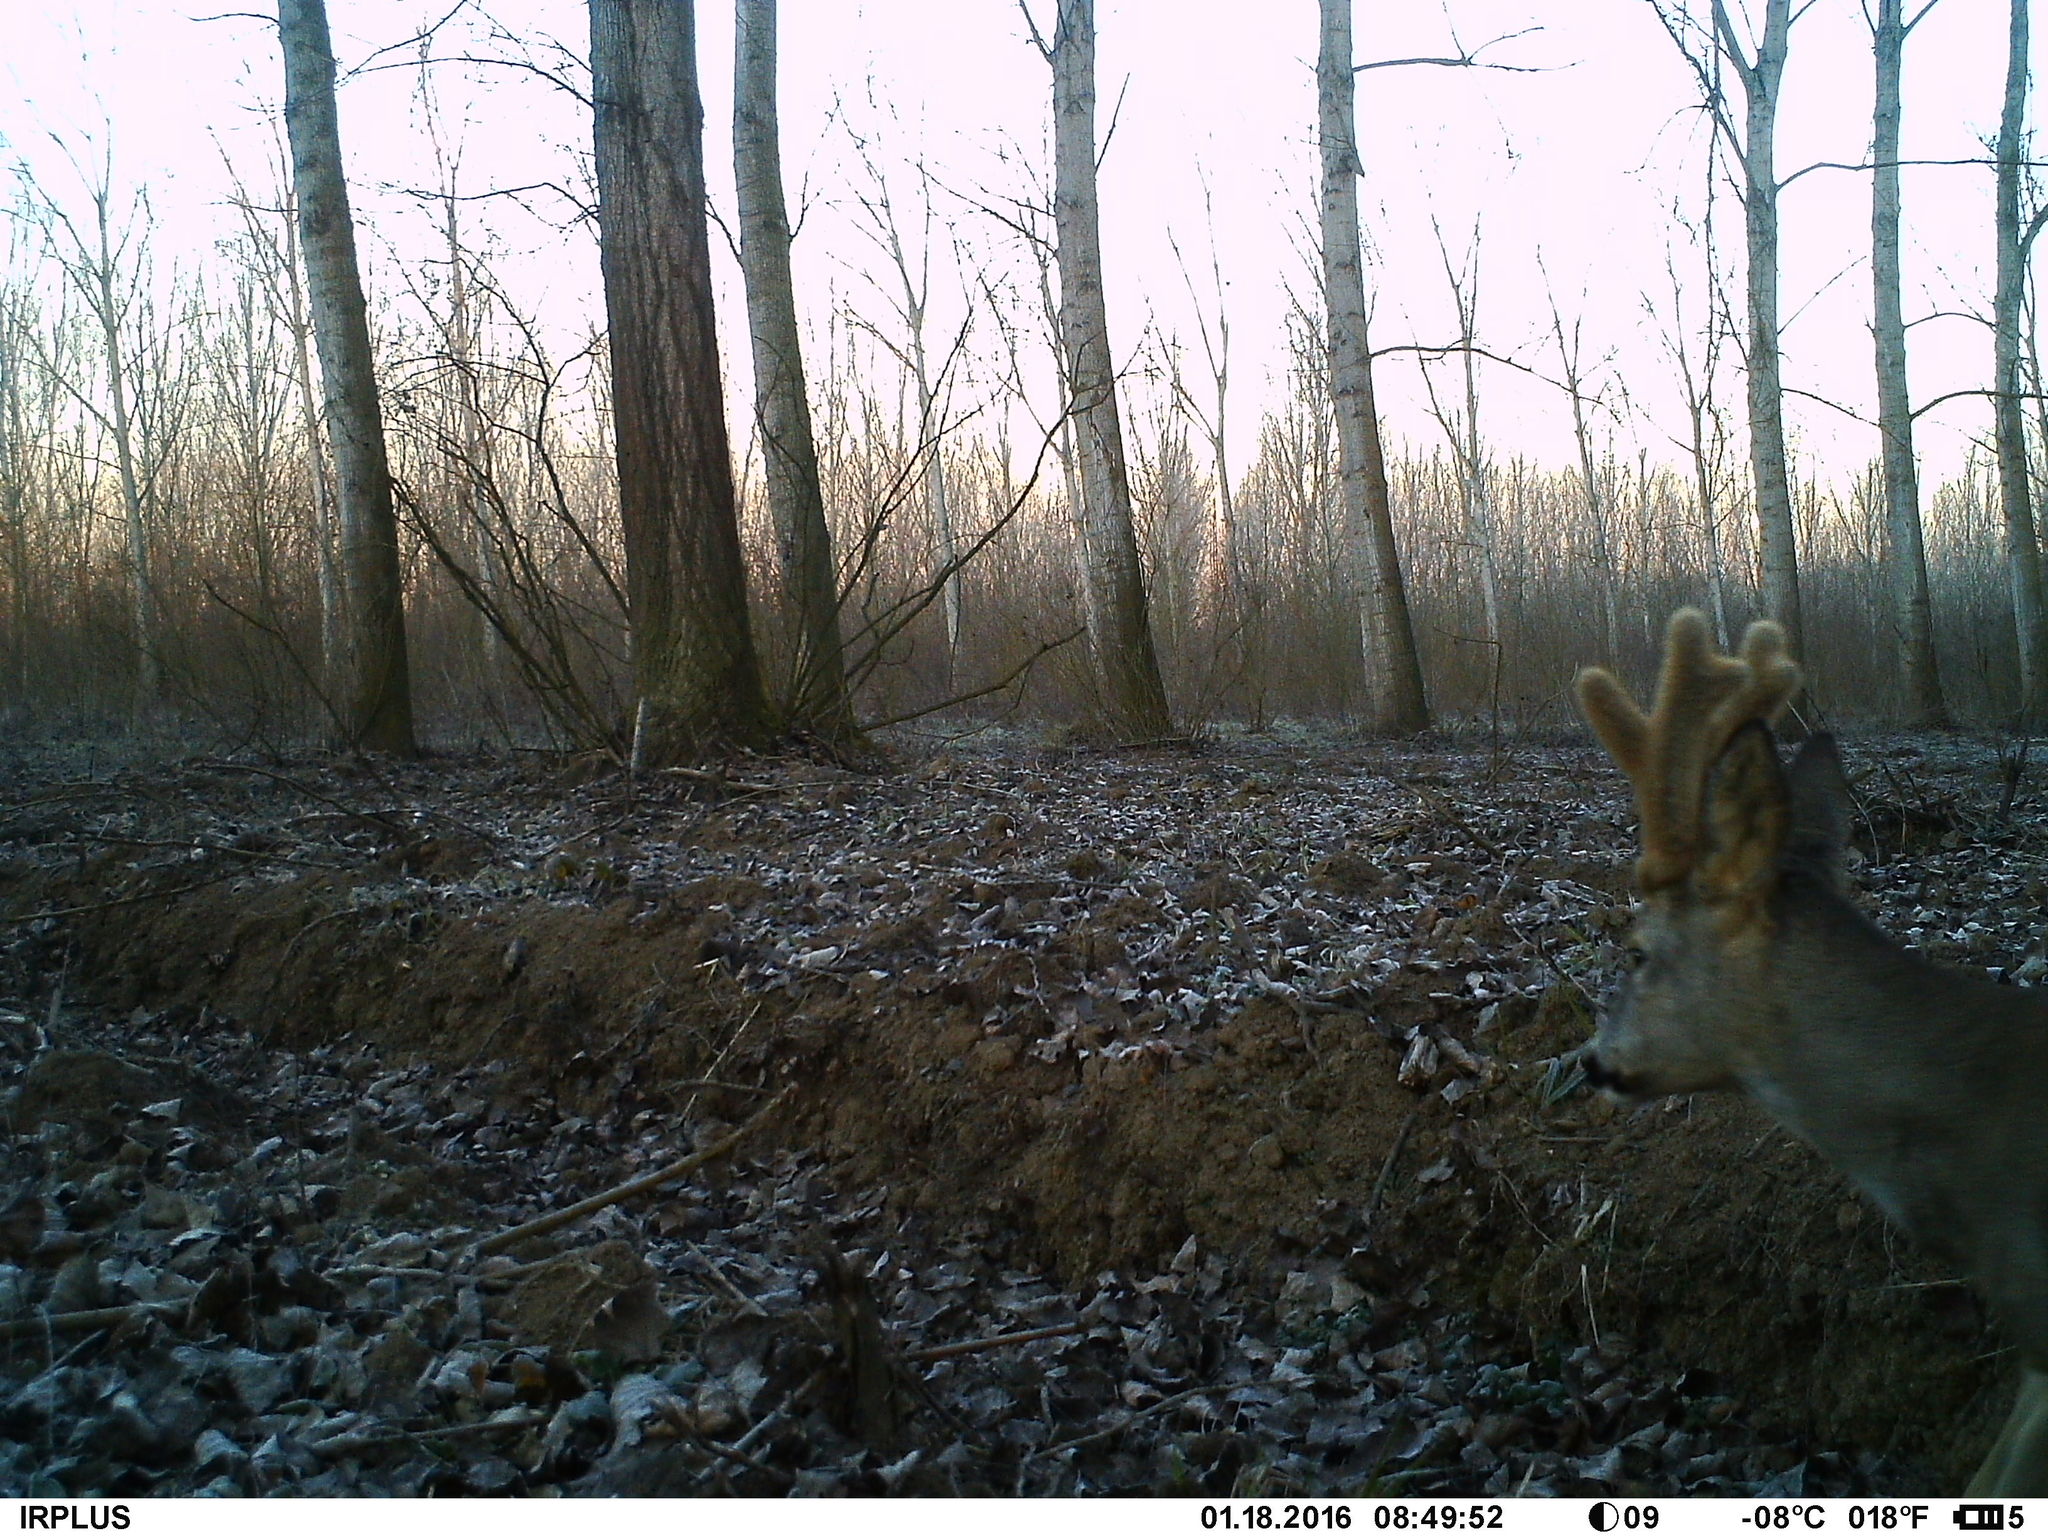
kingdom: Animalia
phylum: Chordata
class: Mammalia
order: Artiodactyla
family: Cervidae
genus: Capreolus
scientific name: Capreolus capreolus
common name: Western roe deer
